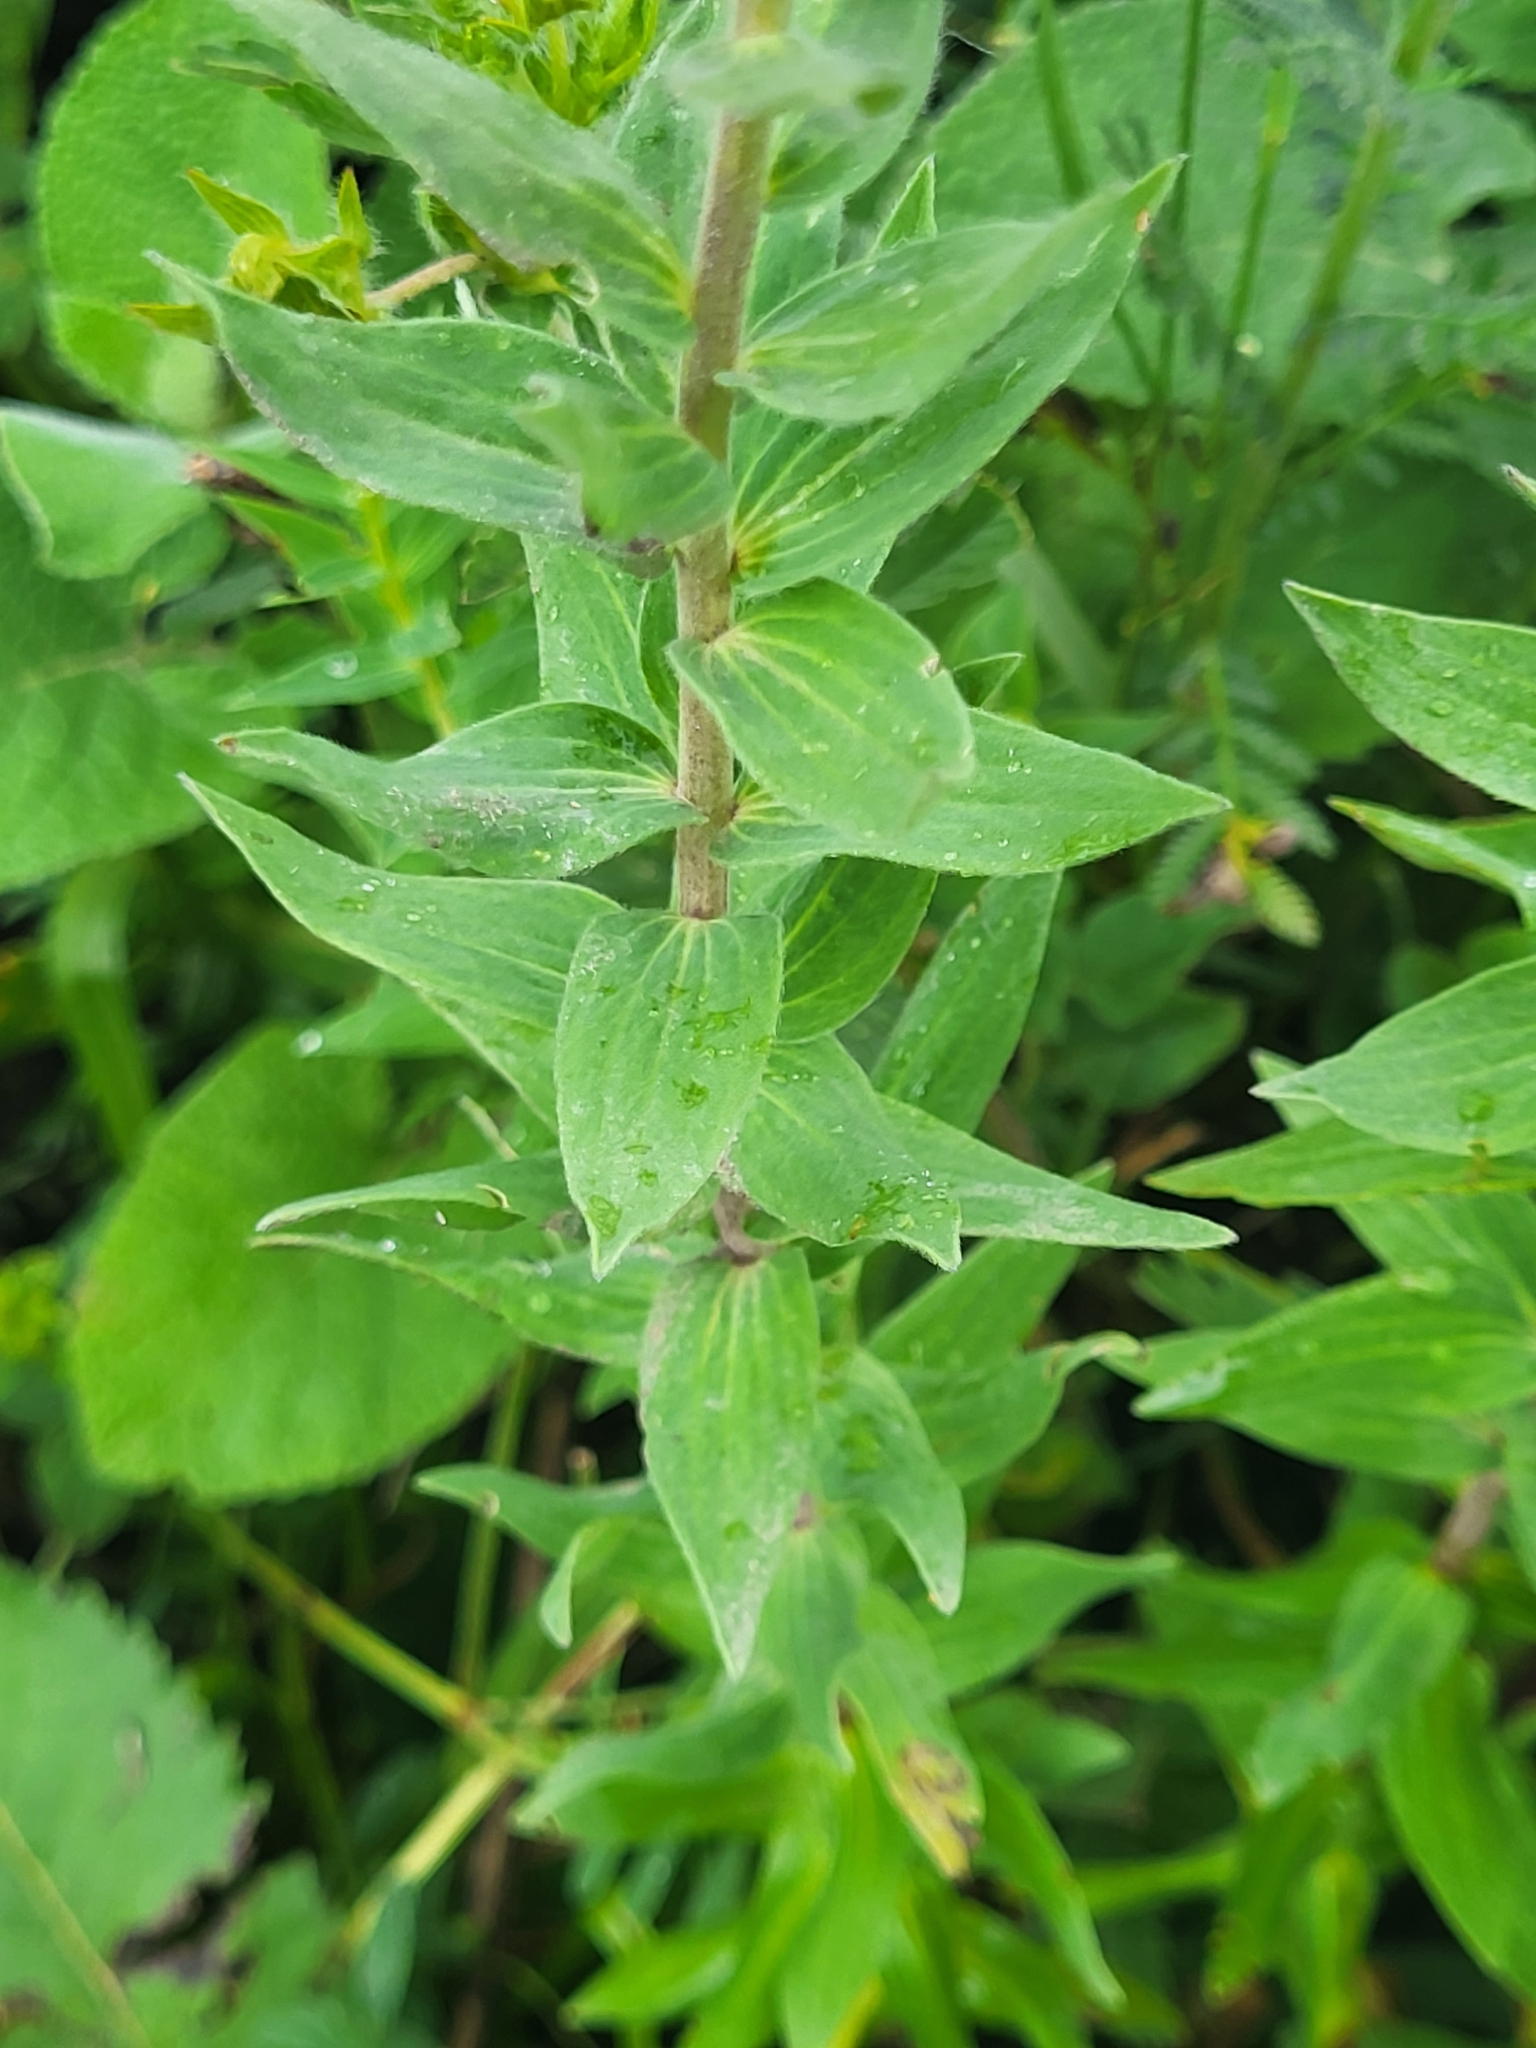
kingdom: Plantae
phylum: Tracheophyta
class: Magnoliopsida
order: Malpighiales
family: Linaceae
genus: Linum
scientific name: Linum hypericifolium
